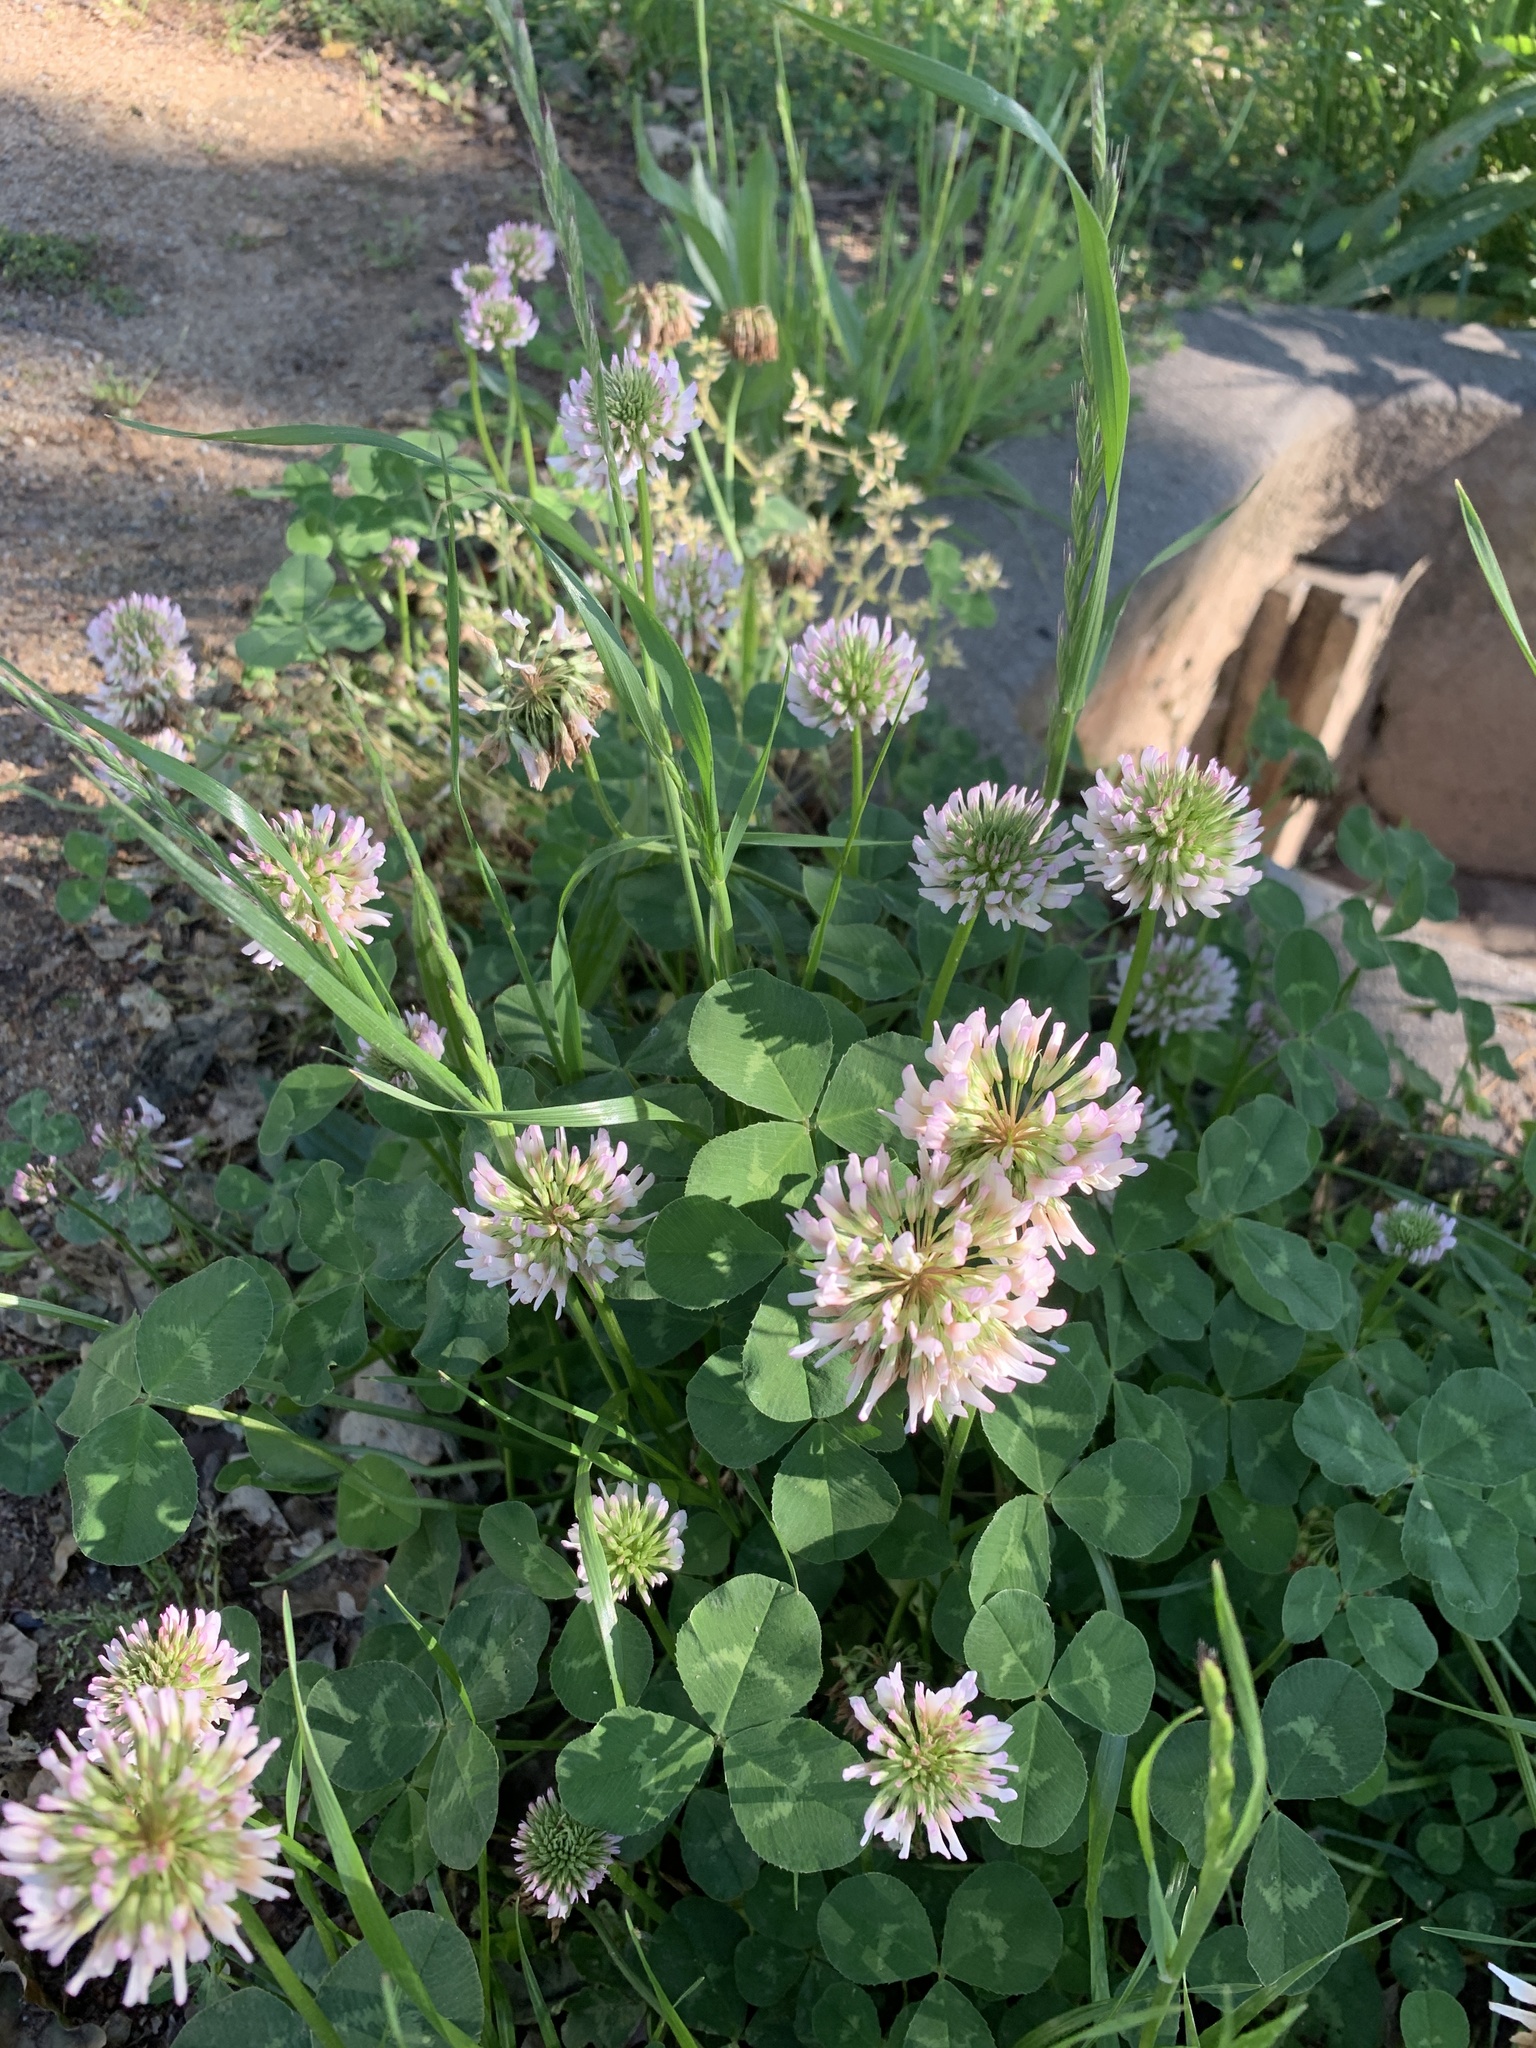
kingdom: Plantae
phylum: Tracheophyta
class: Magnoliopsida
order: Fabales
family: Fabaceae
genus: Trifolium
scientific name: Trifolium repens
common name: White clover
